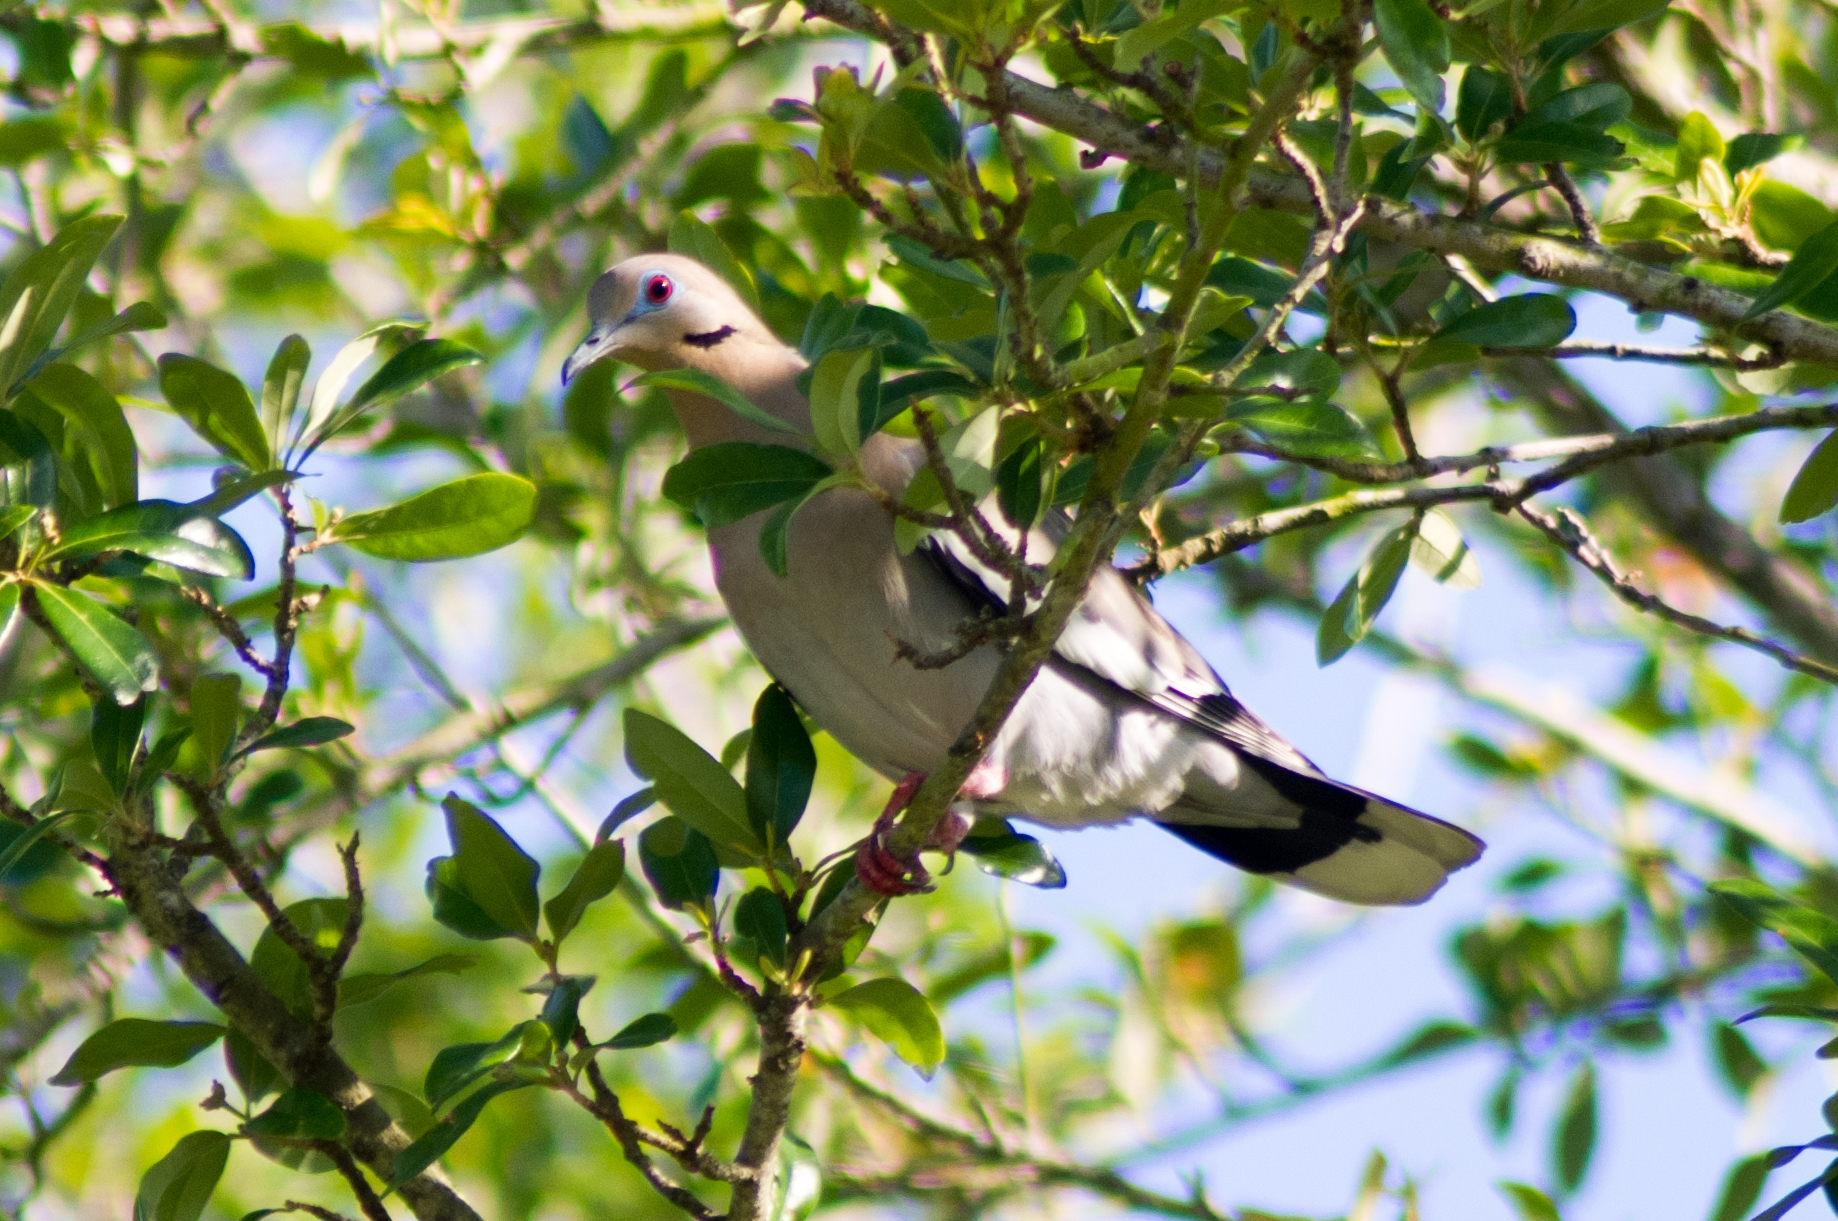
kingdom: Animalia
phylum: Chordata
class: Aves
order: Columbiformes
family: Columbidae
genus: Zenaida
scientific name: Zenaida asiatica
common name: White-winged dove
